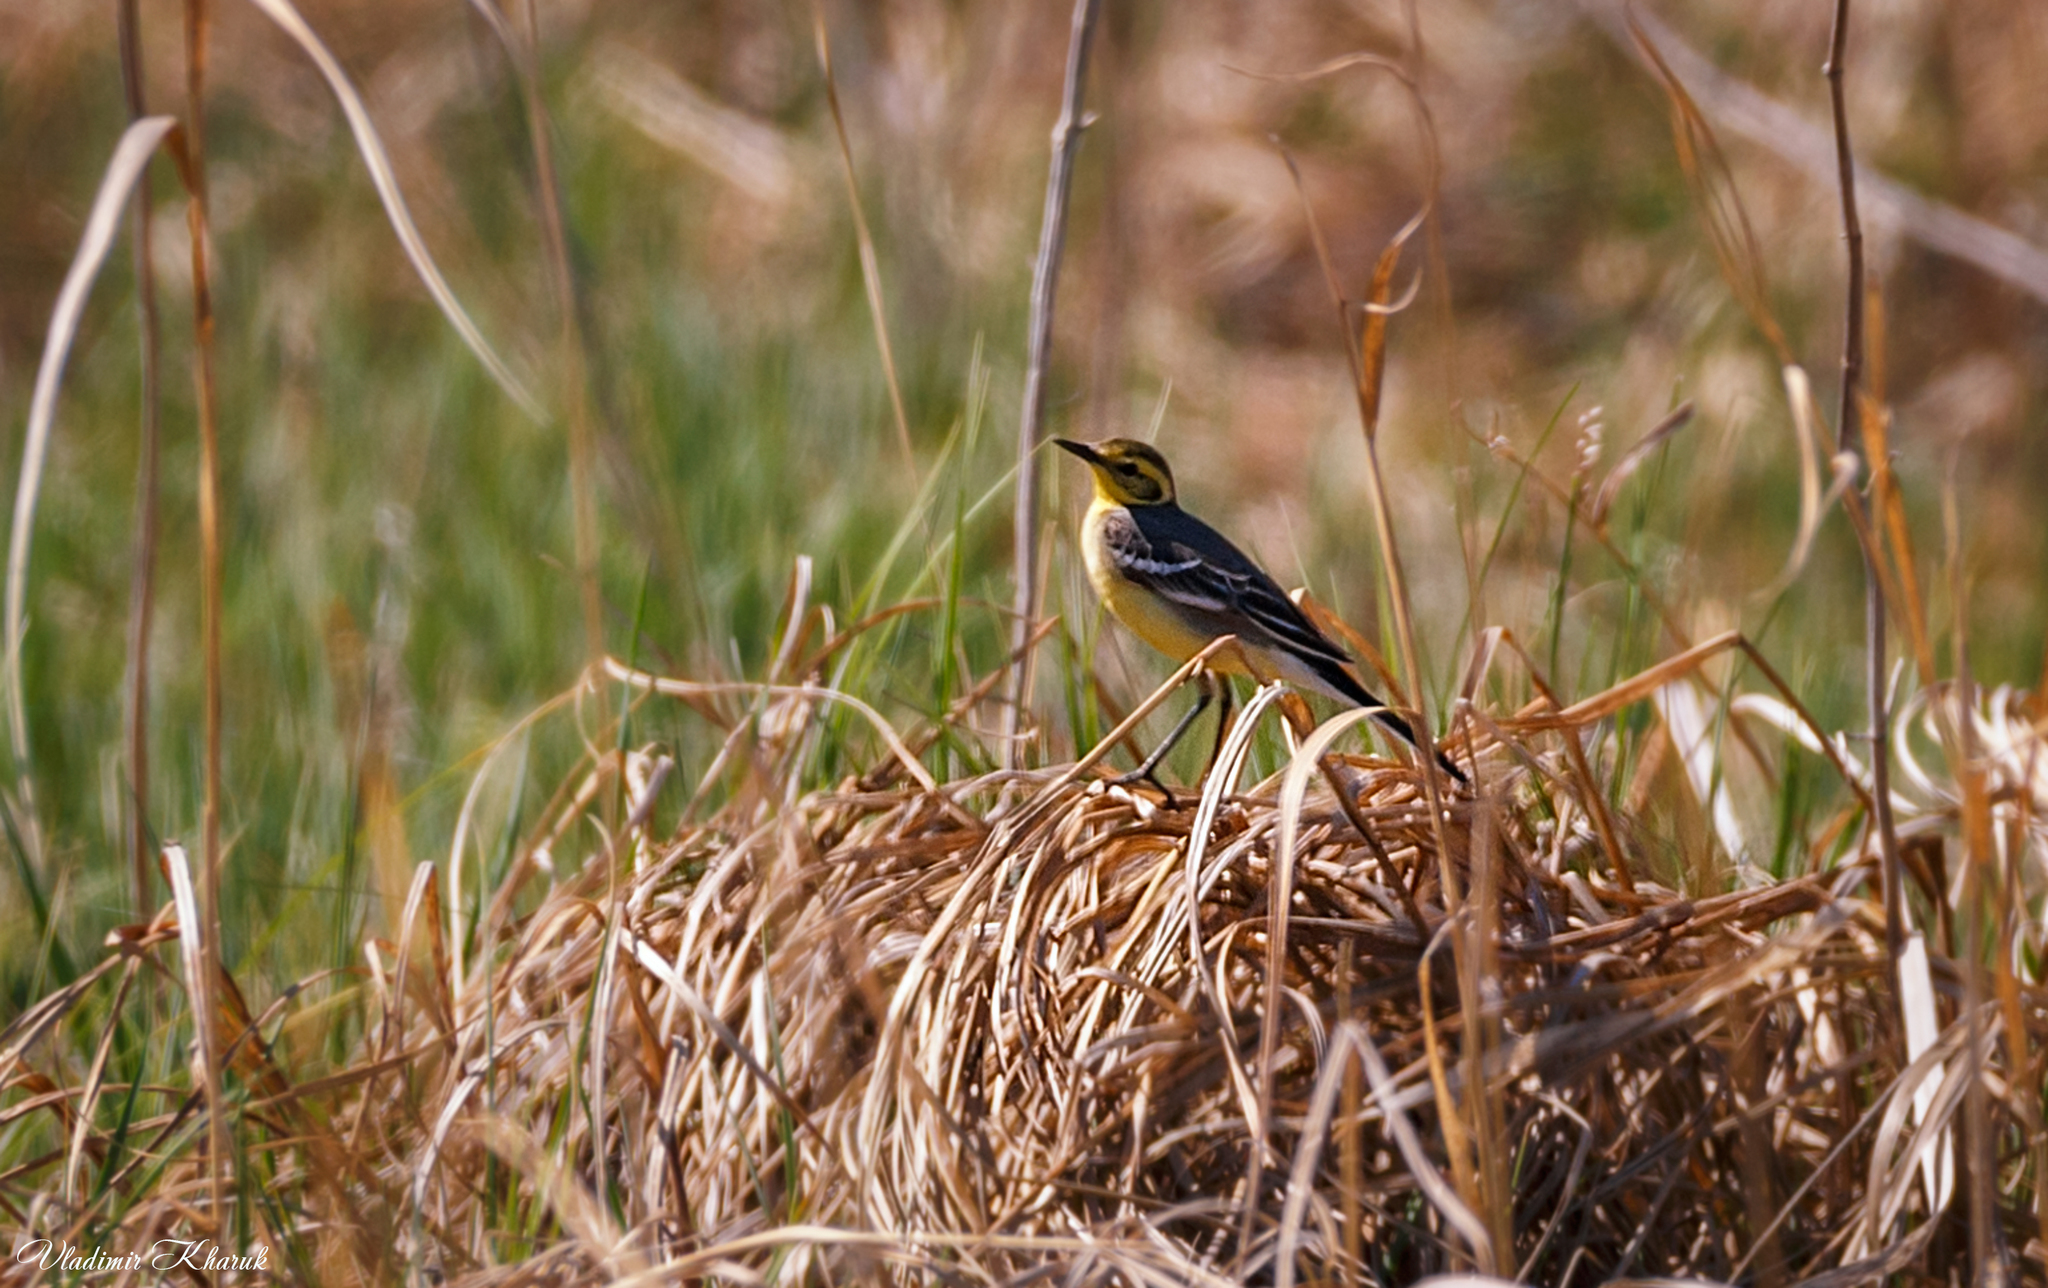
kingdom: Animalia
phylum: Chordata
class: Aves
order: Passeriformes
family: Motacillidae
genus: Motacilla
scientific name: Motacilla citreola
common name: Citrine wagtail
